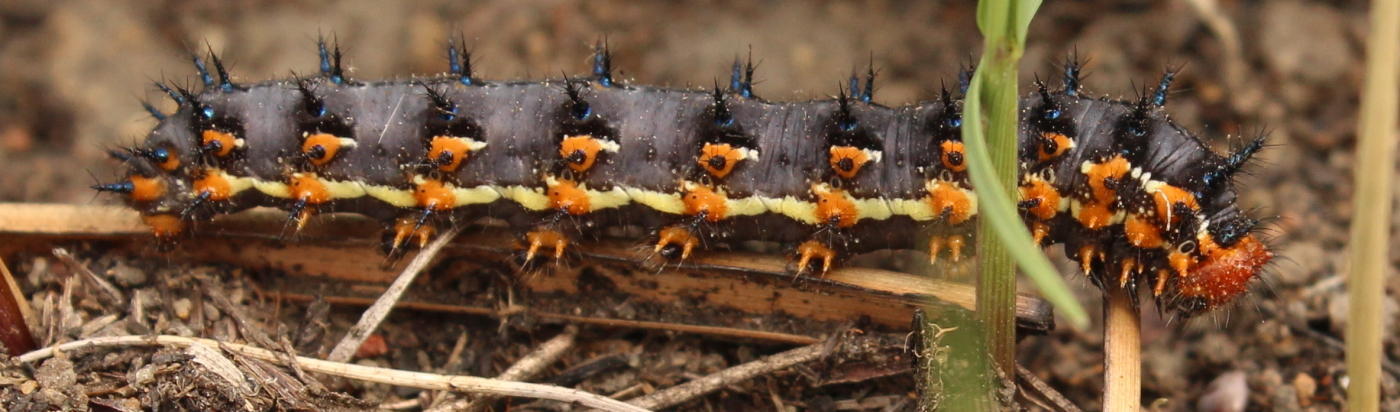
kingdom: Animalia
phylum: Arthropoda
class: Insecta
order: Lepidoptera
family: Nymphalidae
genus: Junonia
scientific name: Junonia orithya
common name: Blue pansy
